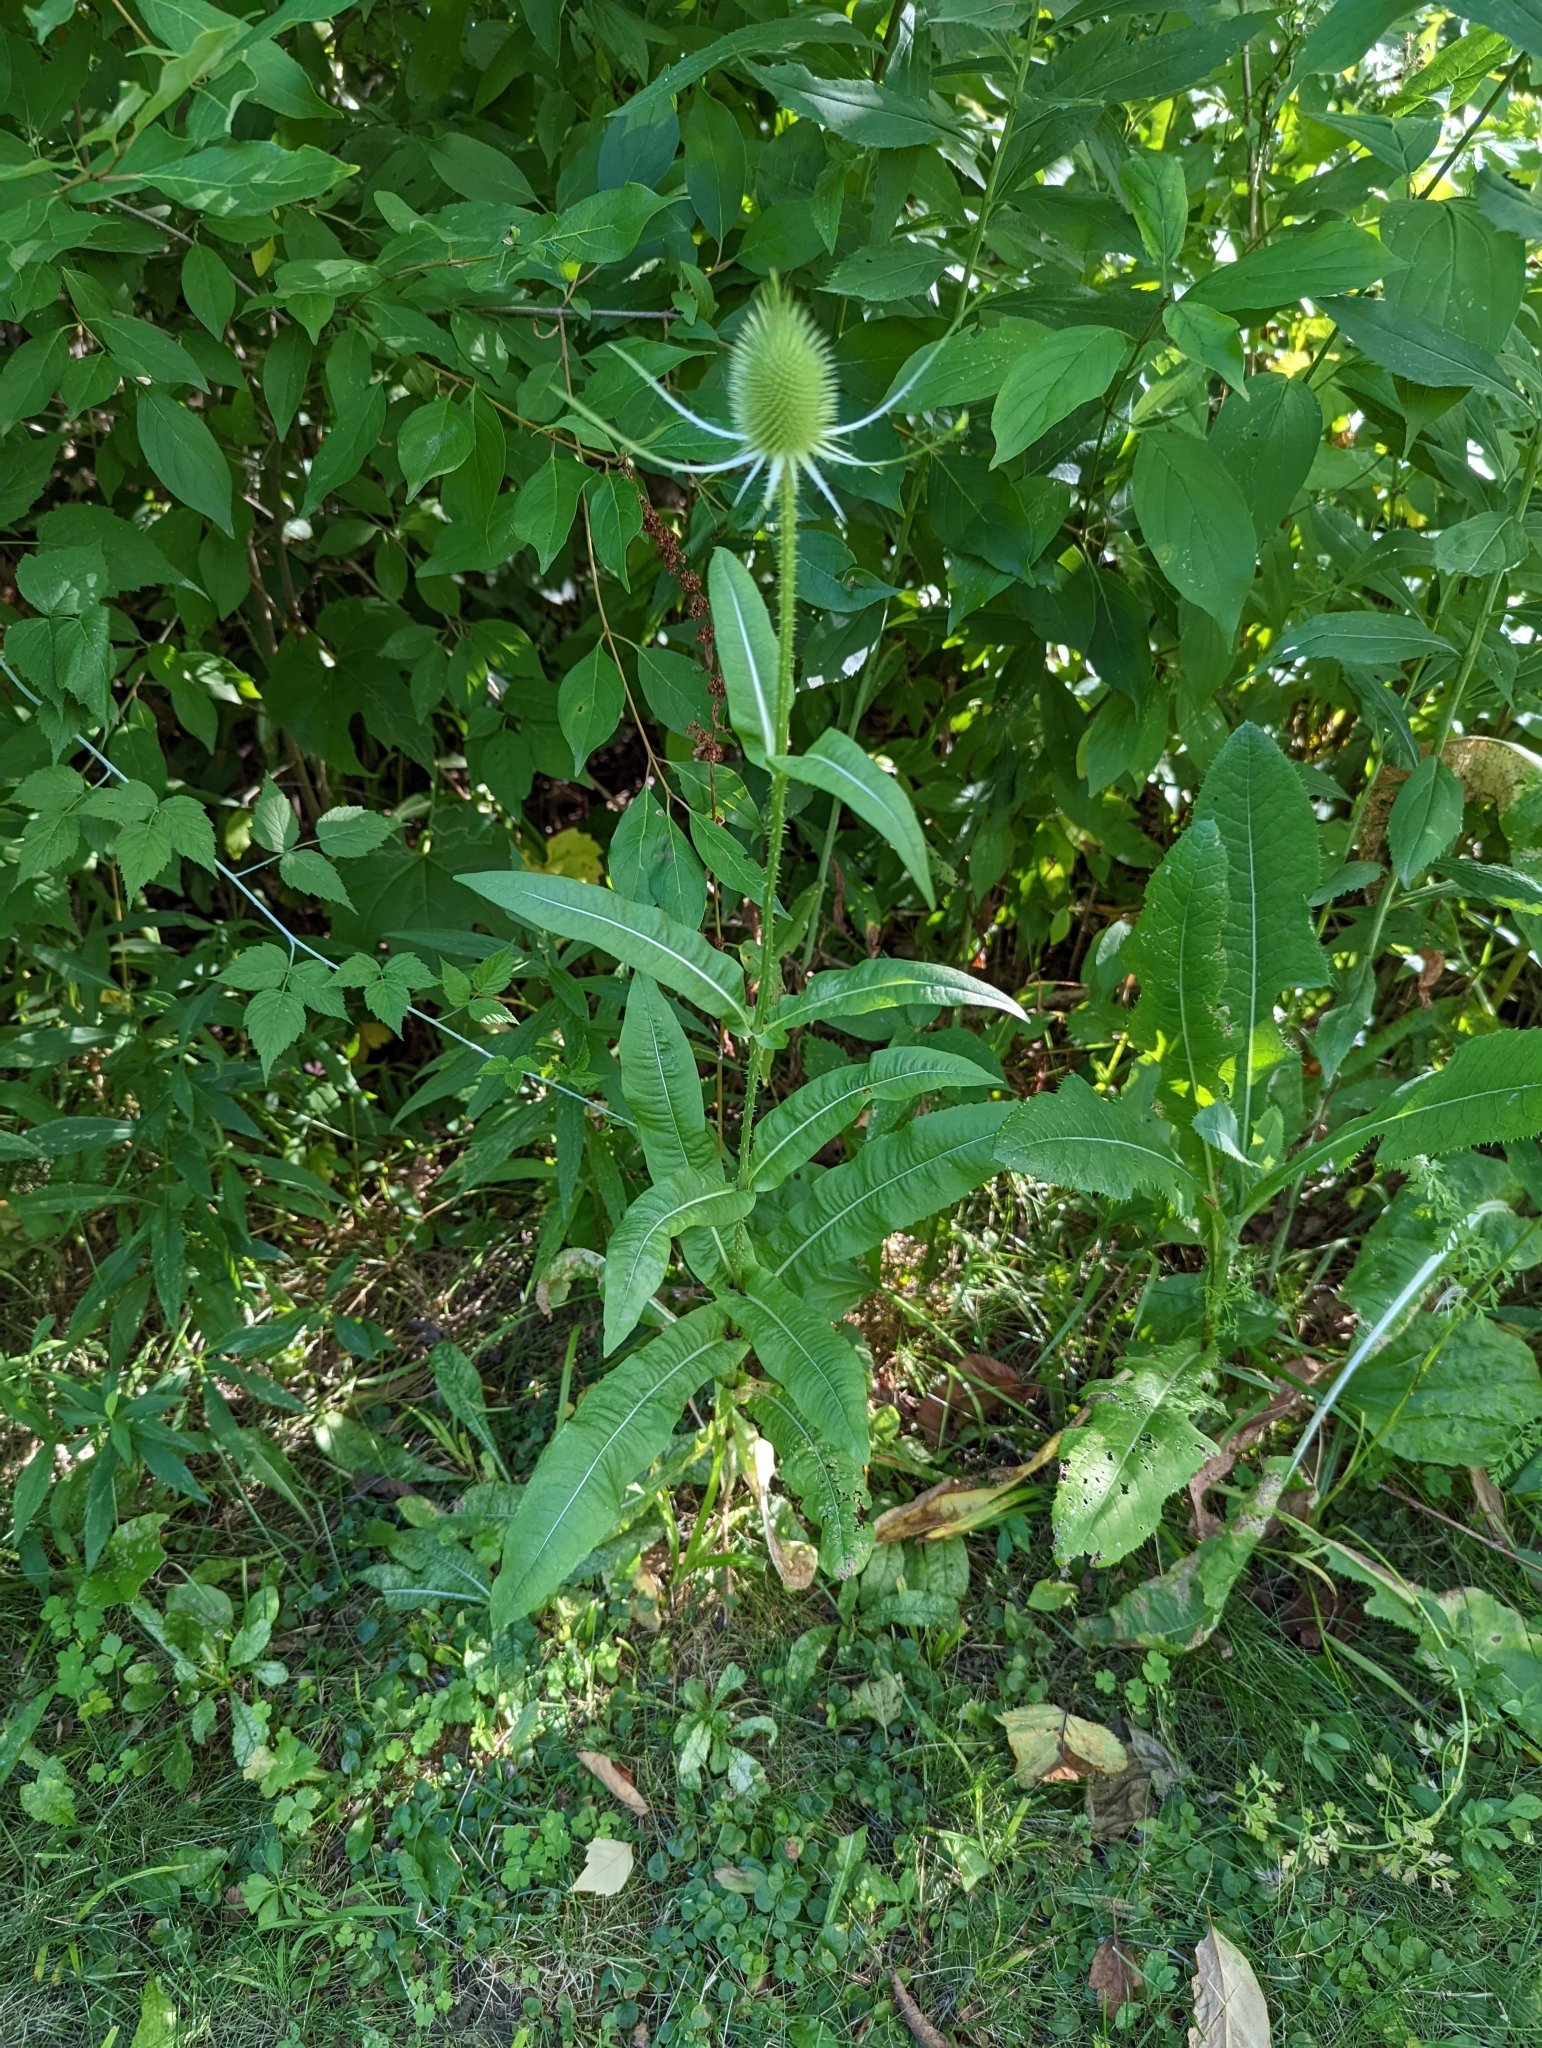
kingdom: Plantae
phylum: Tracheophyta
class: Magnoliopsida
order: Dipsacales
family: Caprifoliaceae
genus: Dipsacus
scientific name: Dipsacus fullonum
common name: Teasel
